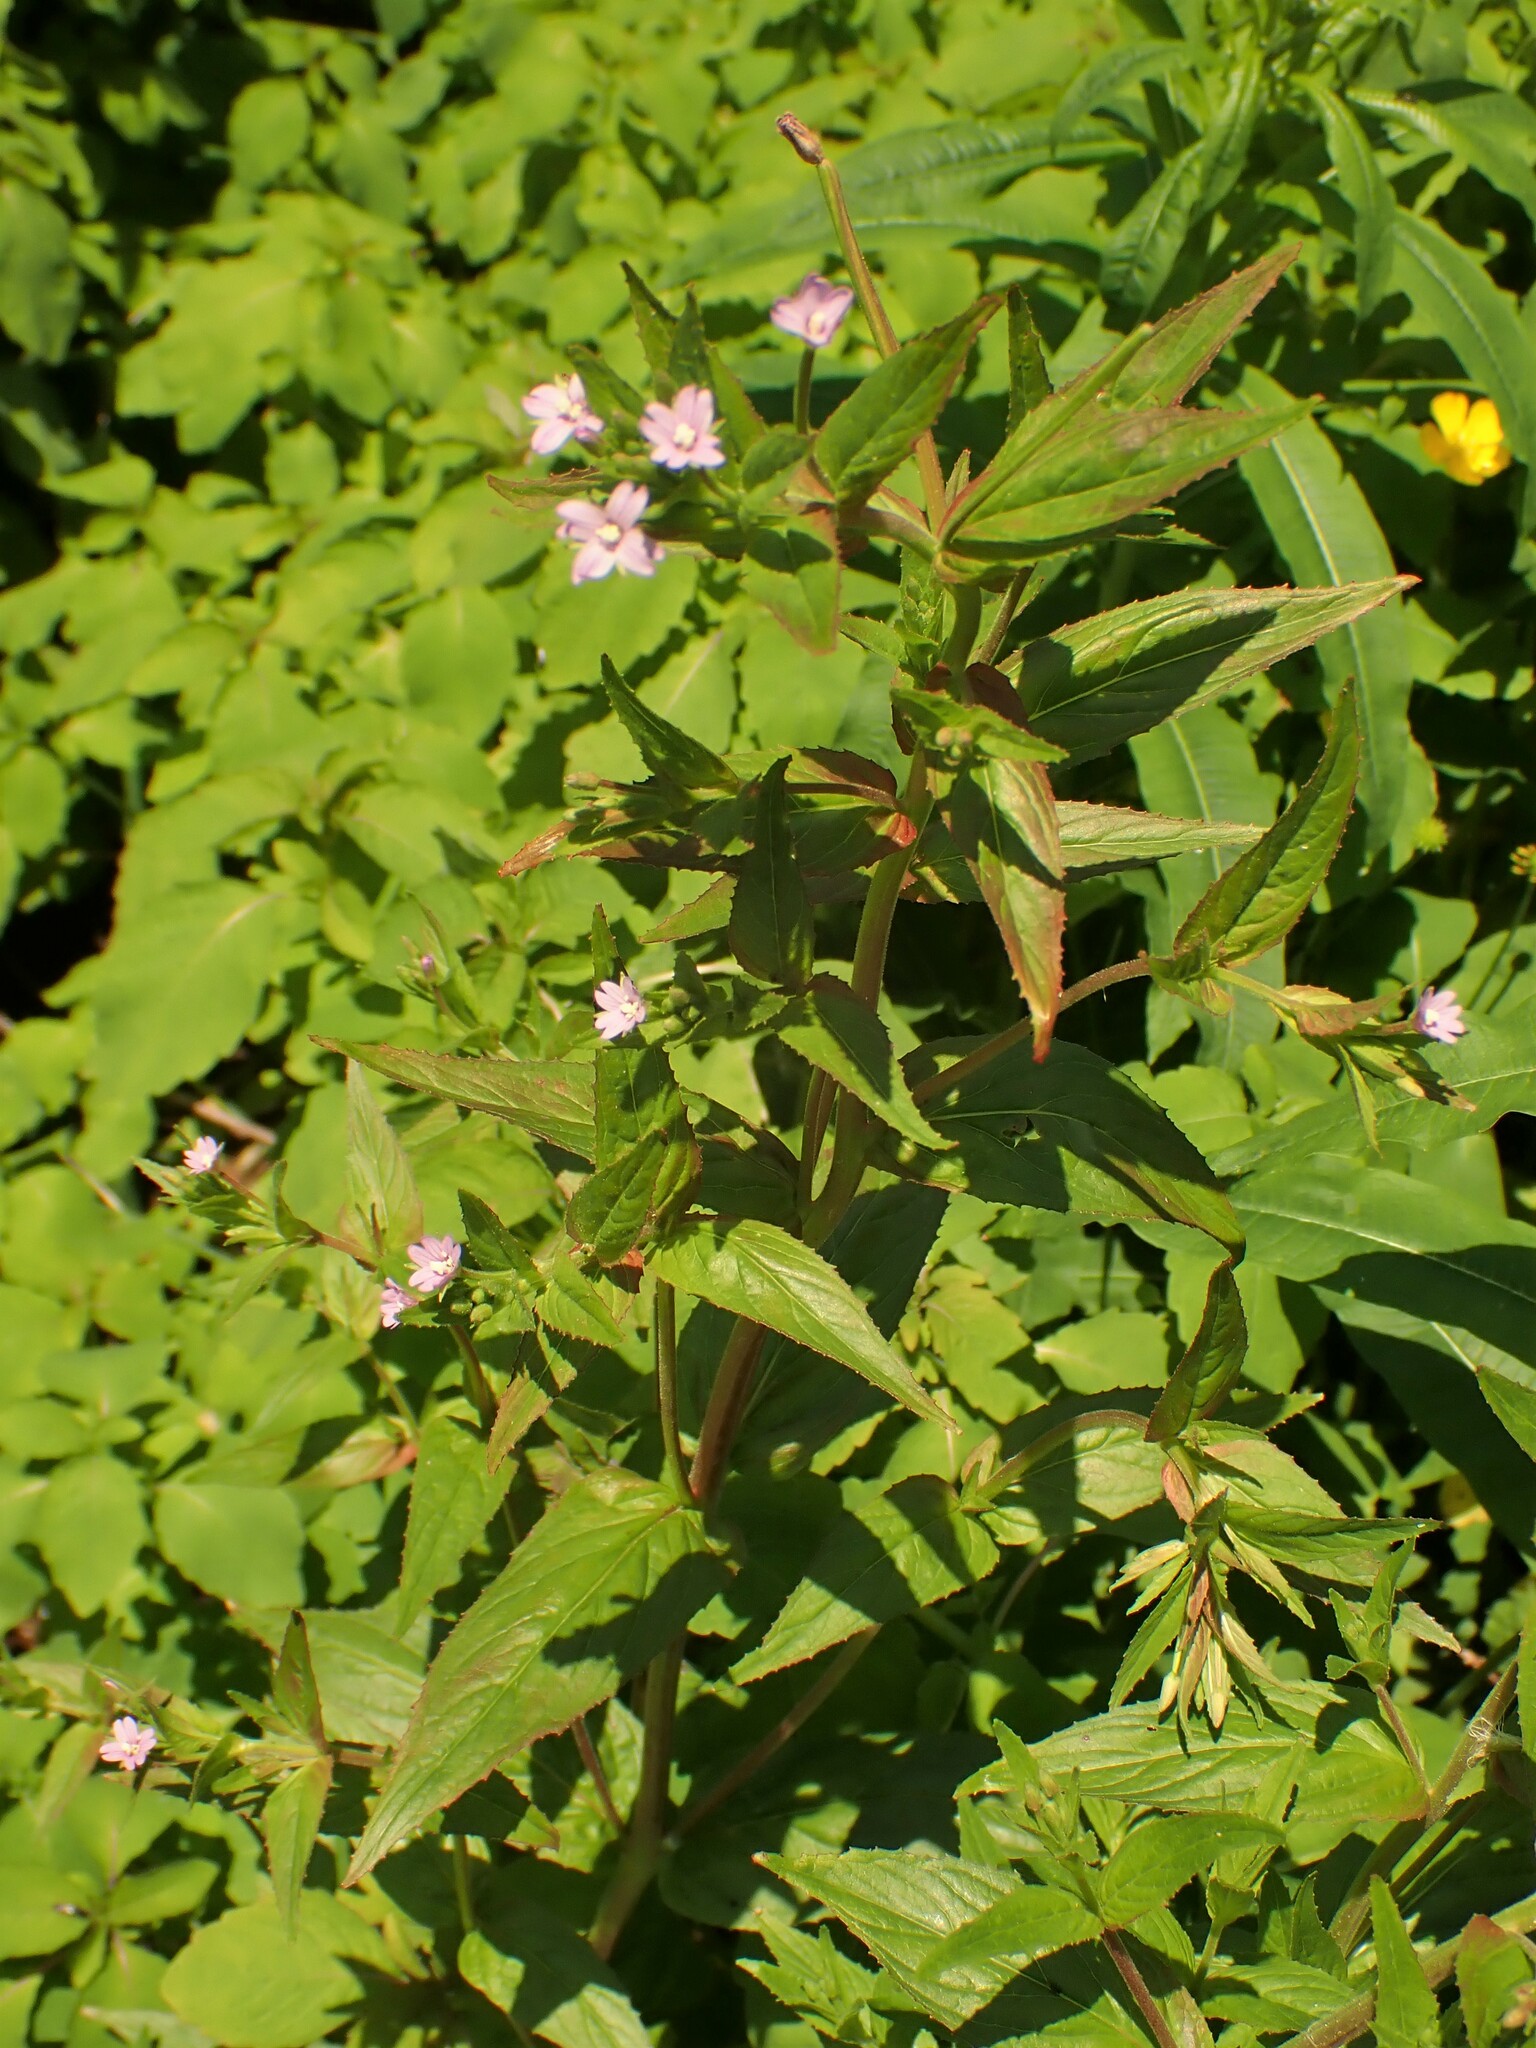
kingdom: Plantae
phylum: Tracheophyta
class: Magnoliopsida
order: Myrtales
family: Onagraceae
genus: Epilobium
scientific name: Epilobium ciliatum
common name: American willowherb
